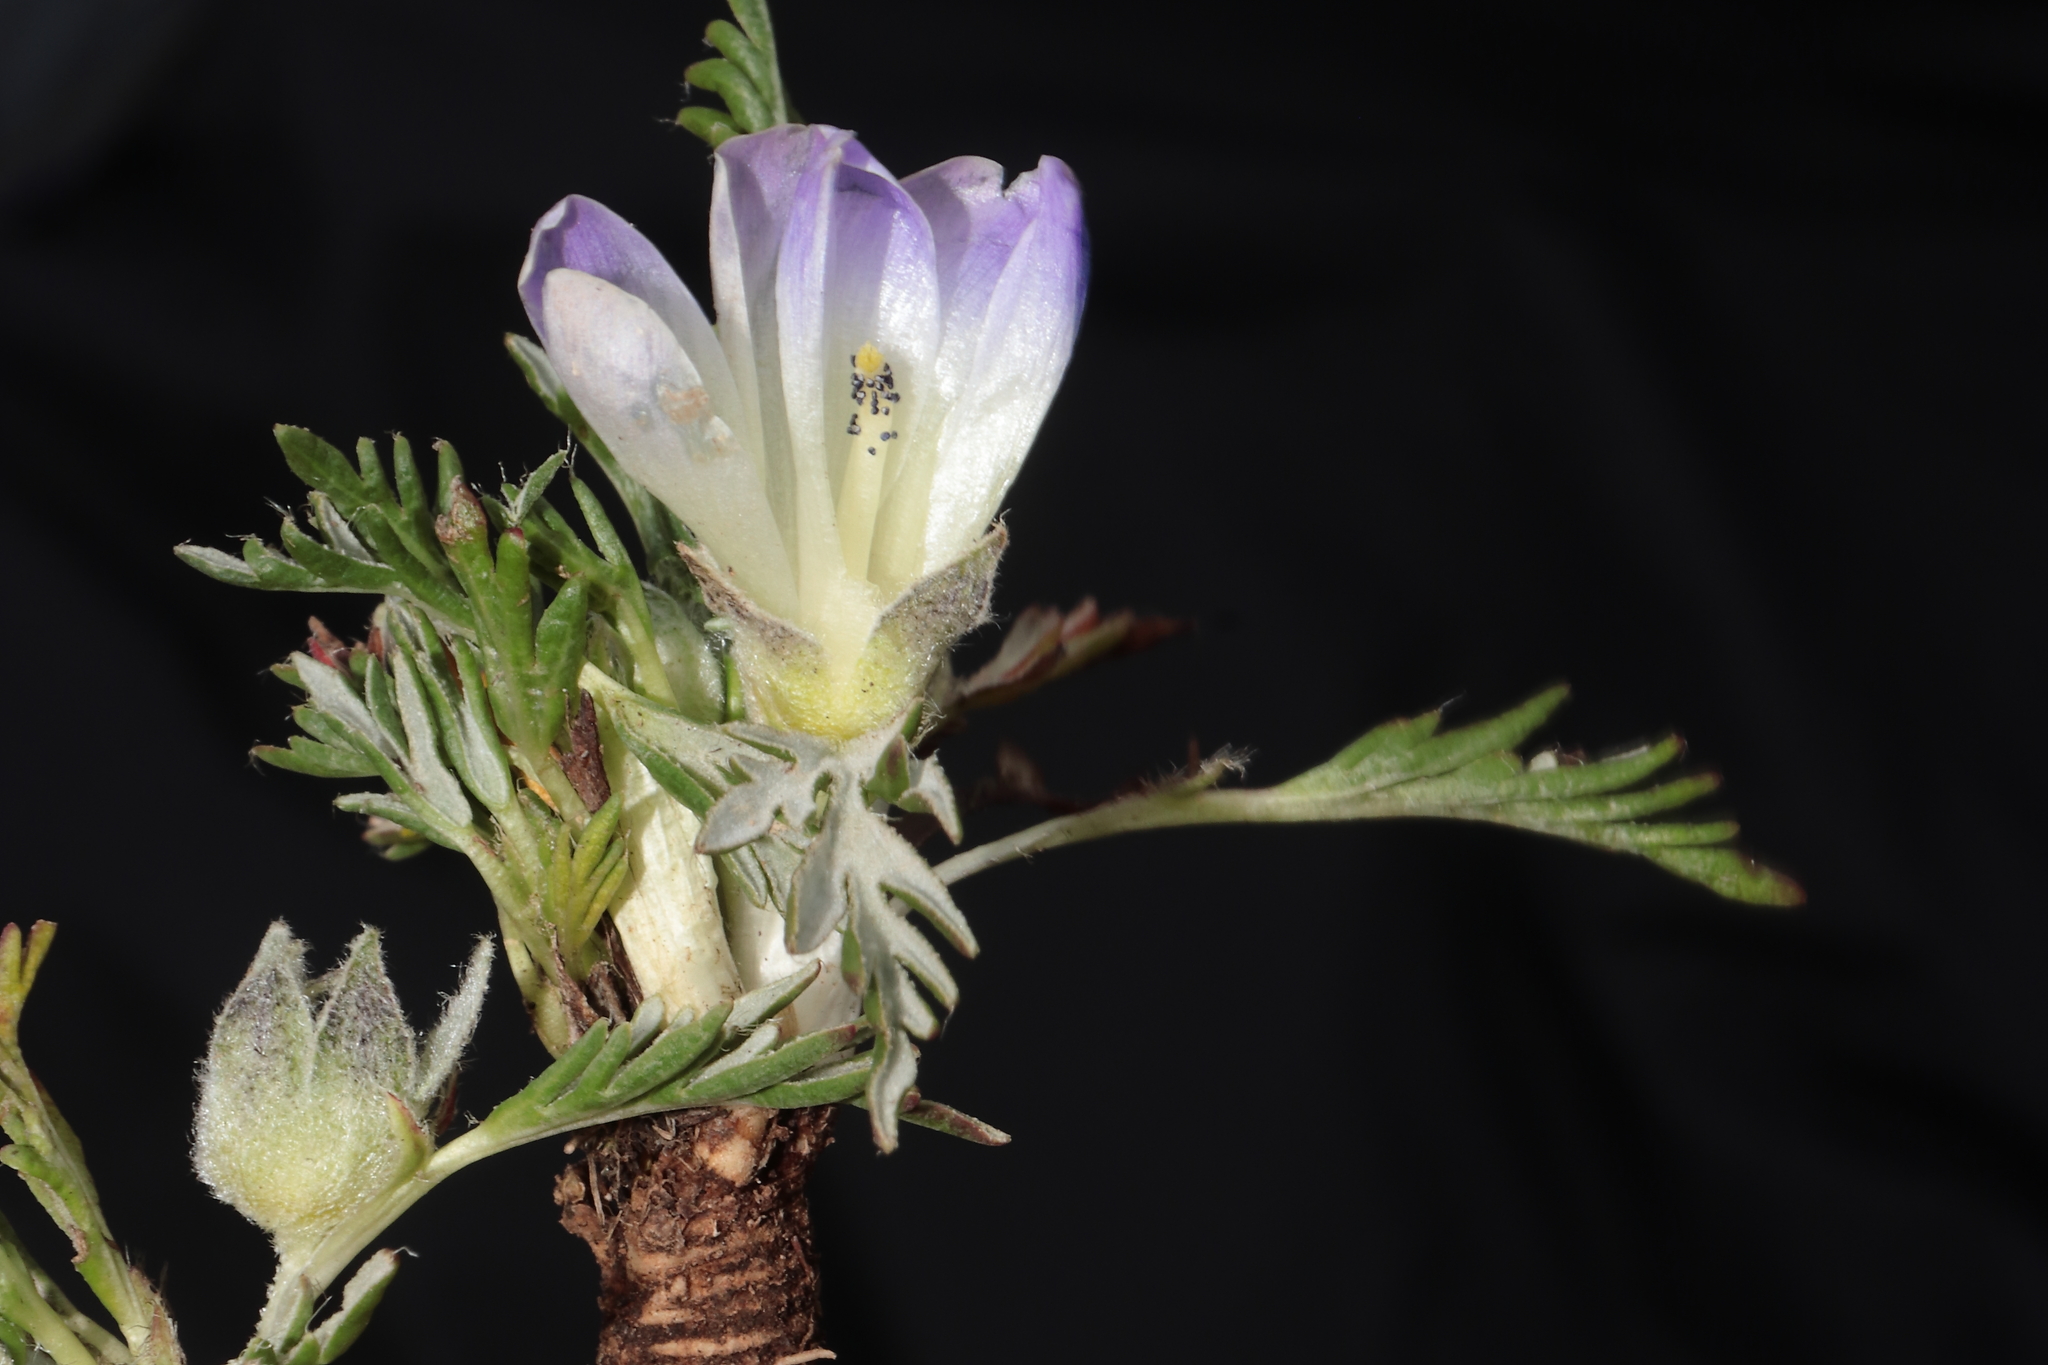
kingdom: Plantae
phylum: Tracheophyta
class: Magnoliopsida
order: Malvales
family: Malvaceae
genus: Nototriche
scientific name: Nototriche pinnata
